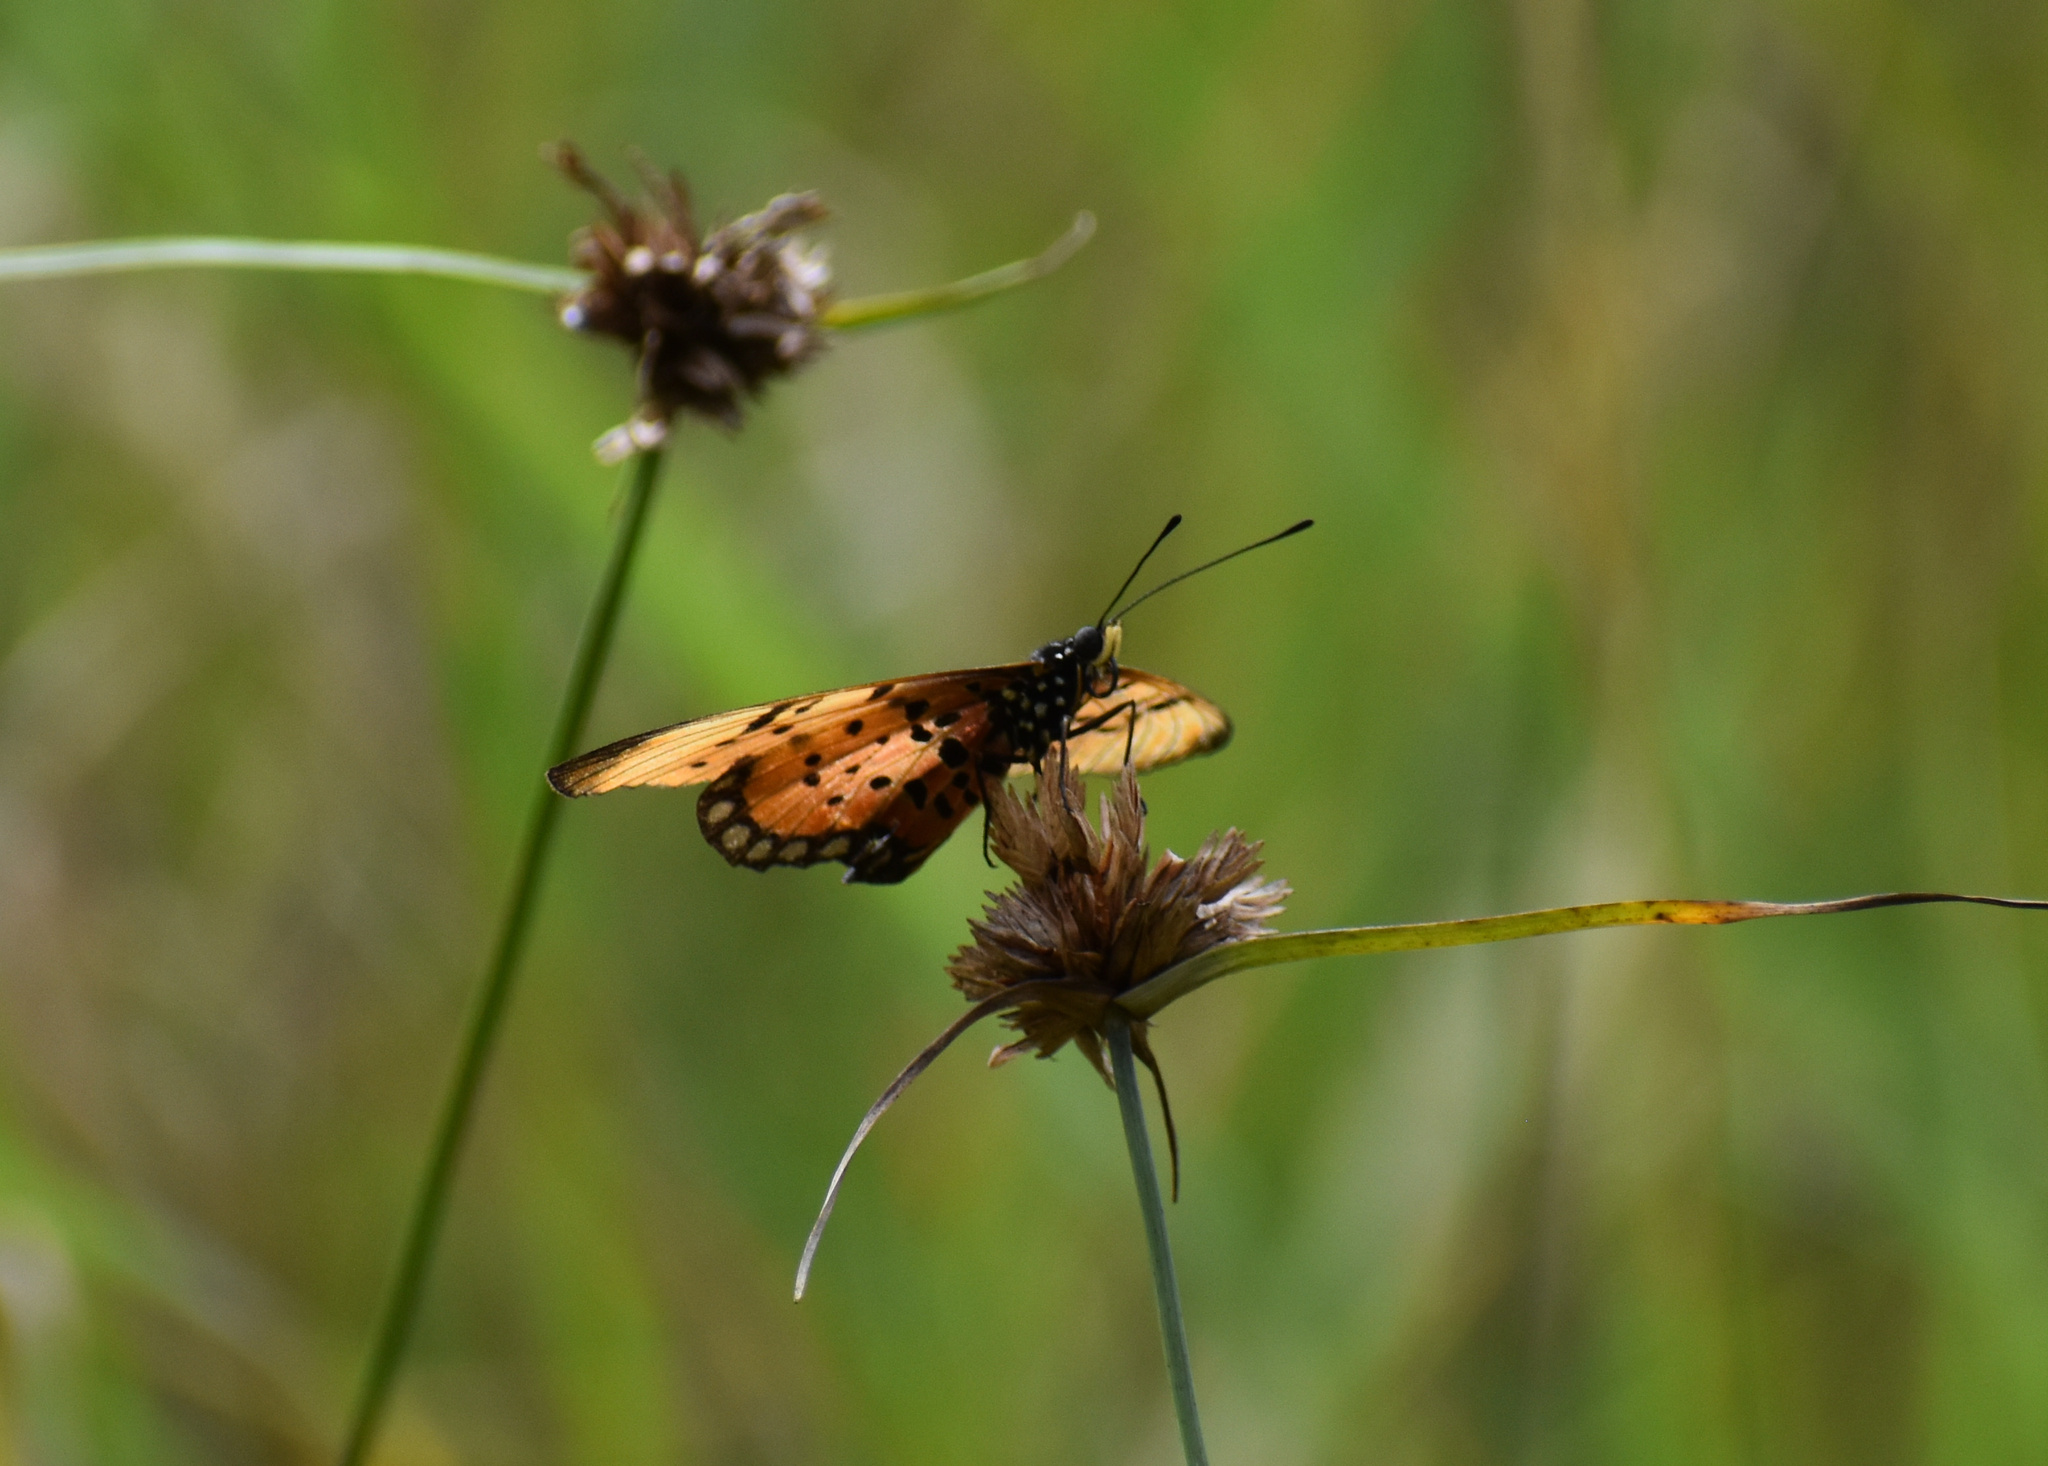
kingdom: Animalia
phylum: Arthropoda
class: Insecta
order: Lepidoptera
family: Nymphalidae
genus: Stephenia
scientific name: Stephenia
